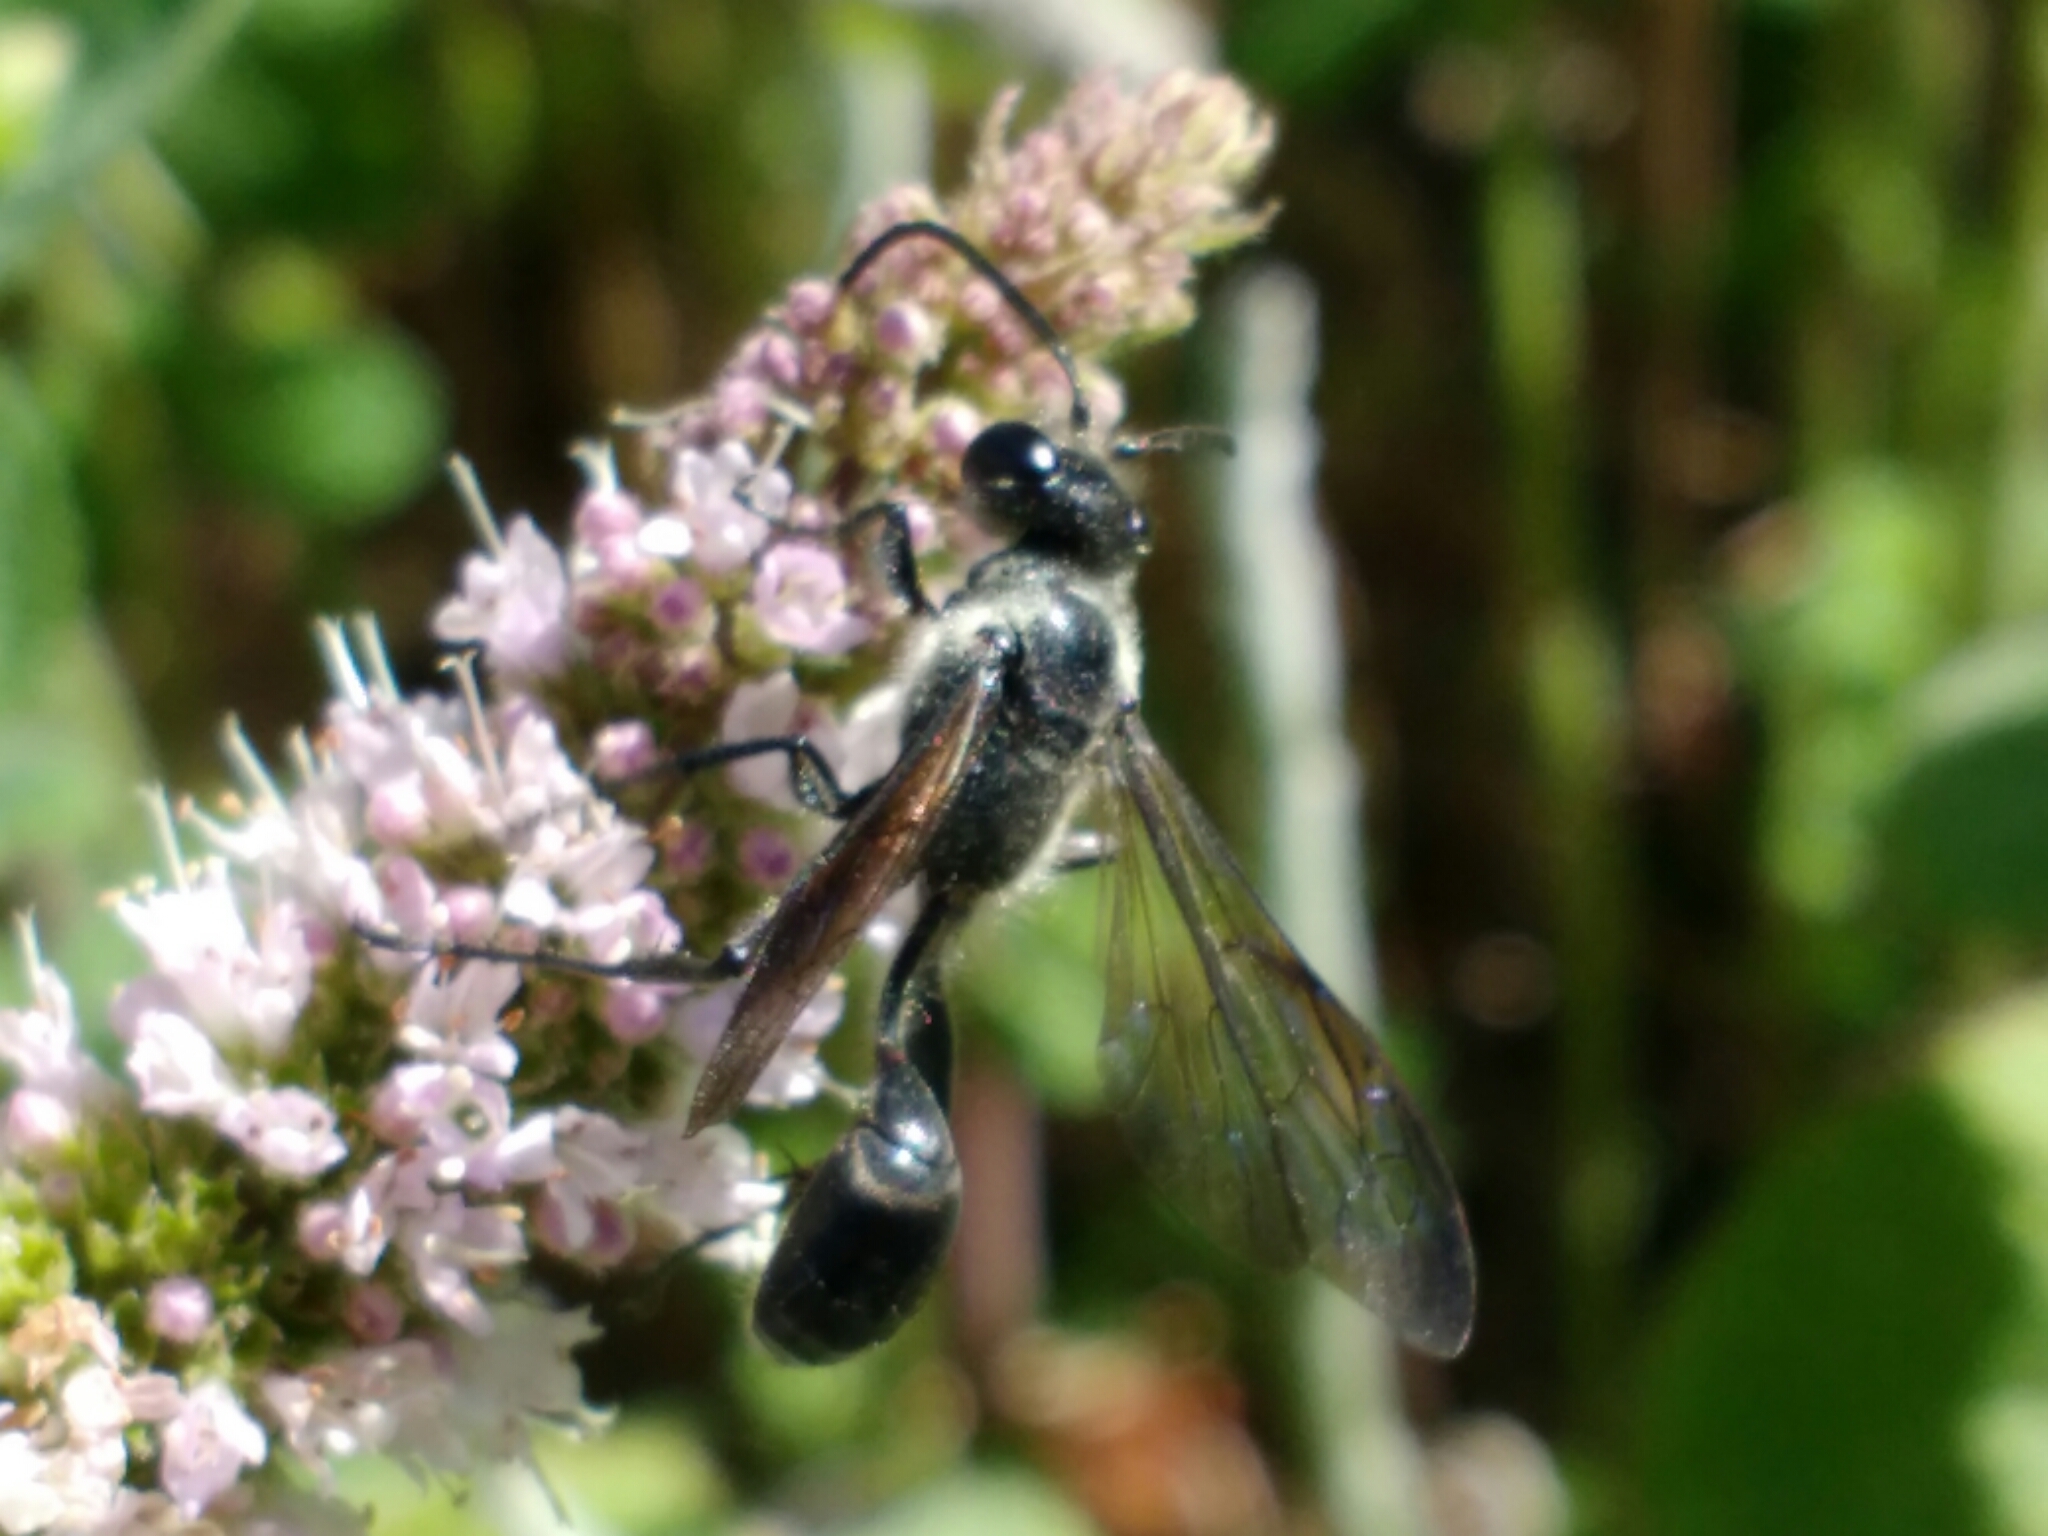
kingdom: Animalia
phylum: Arthropoda
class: Insecta
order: Hymenoptera
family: Sphecidae
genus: Isodontia
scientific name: Isodontia mexicana
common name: Mud dauber
